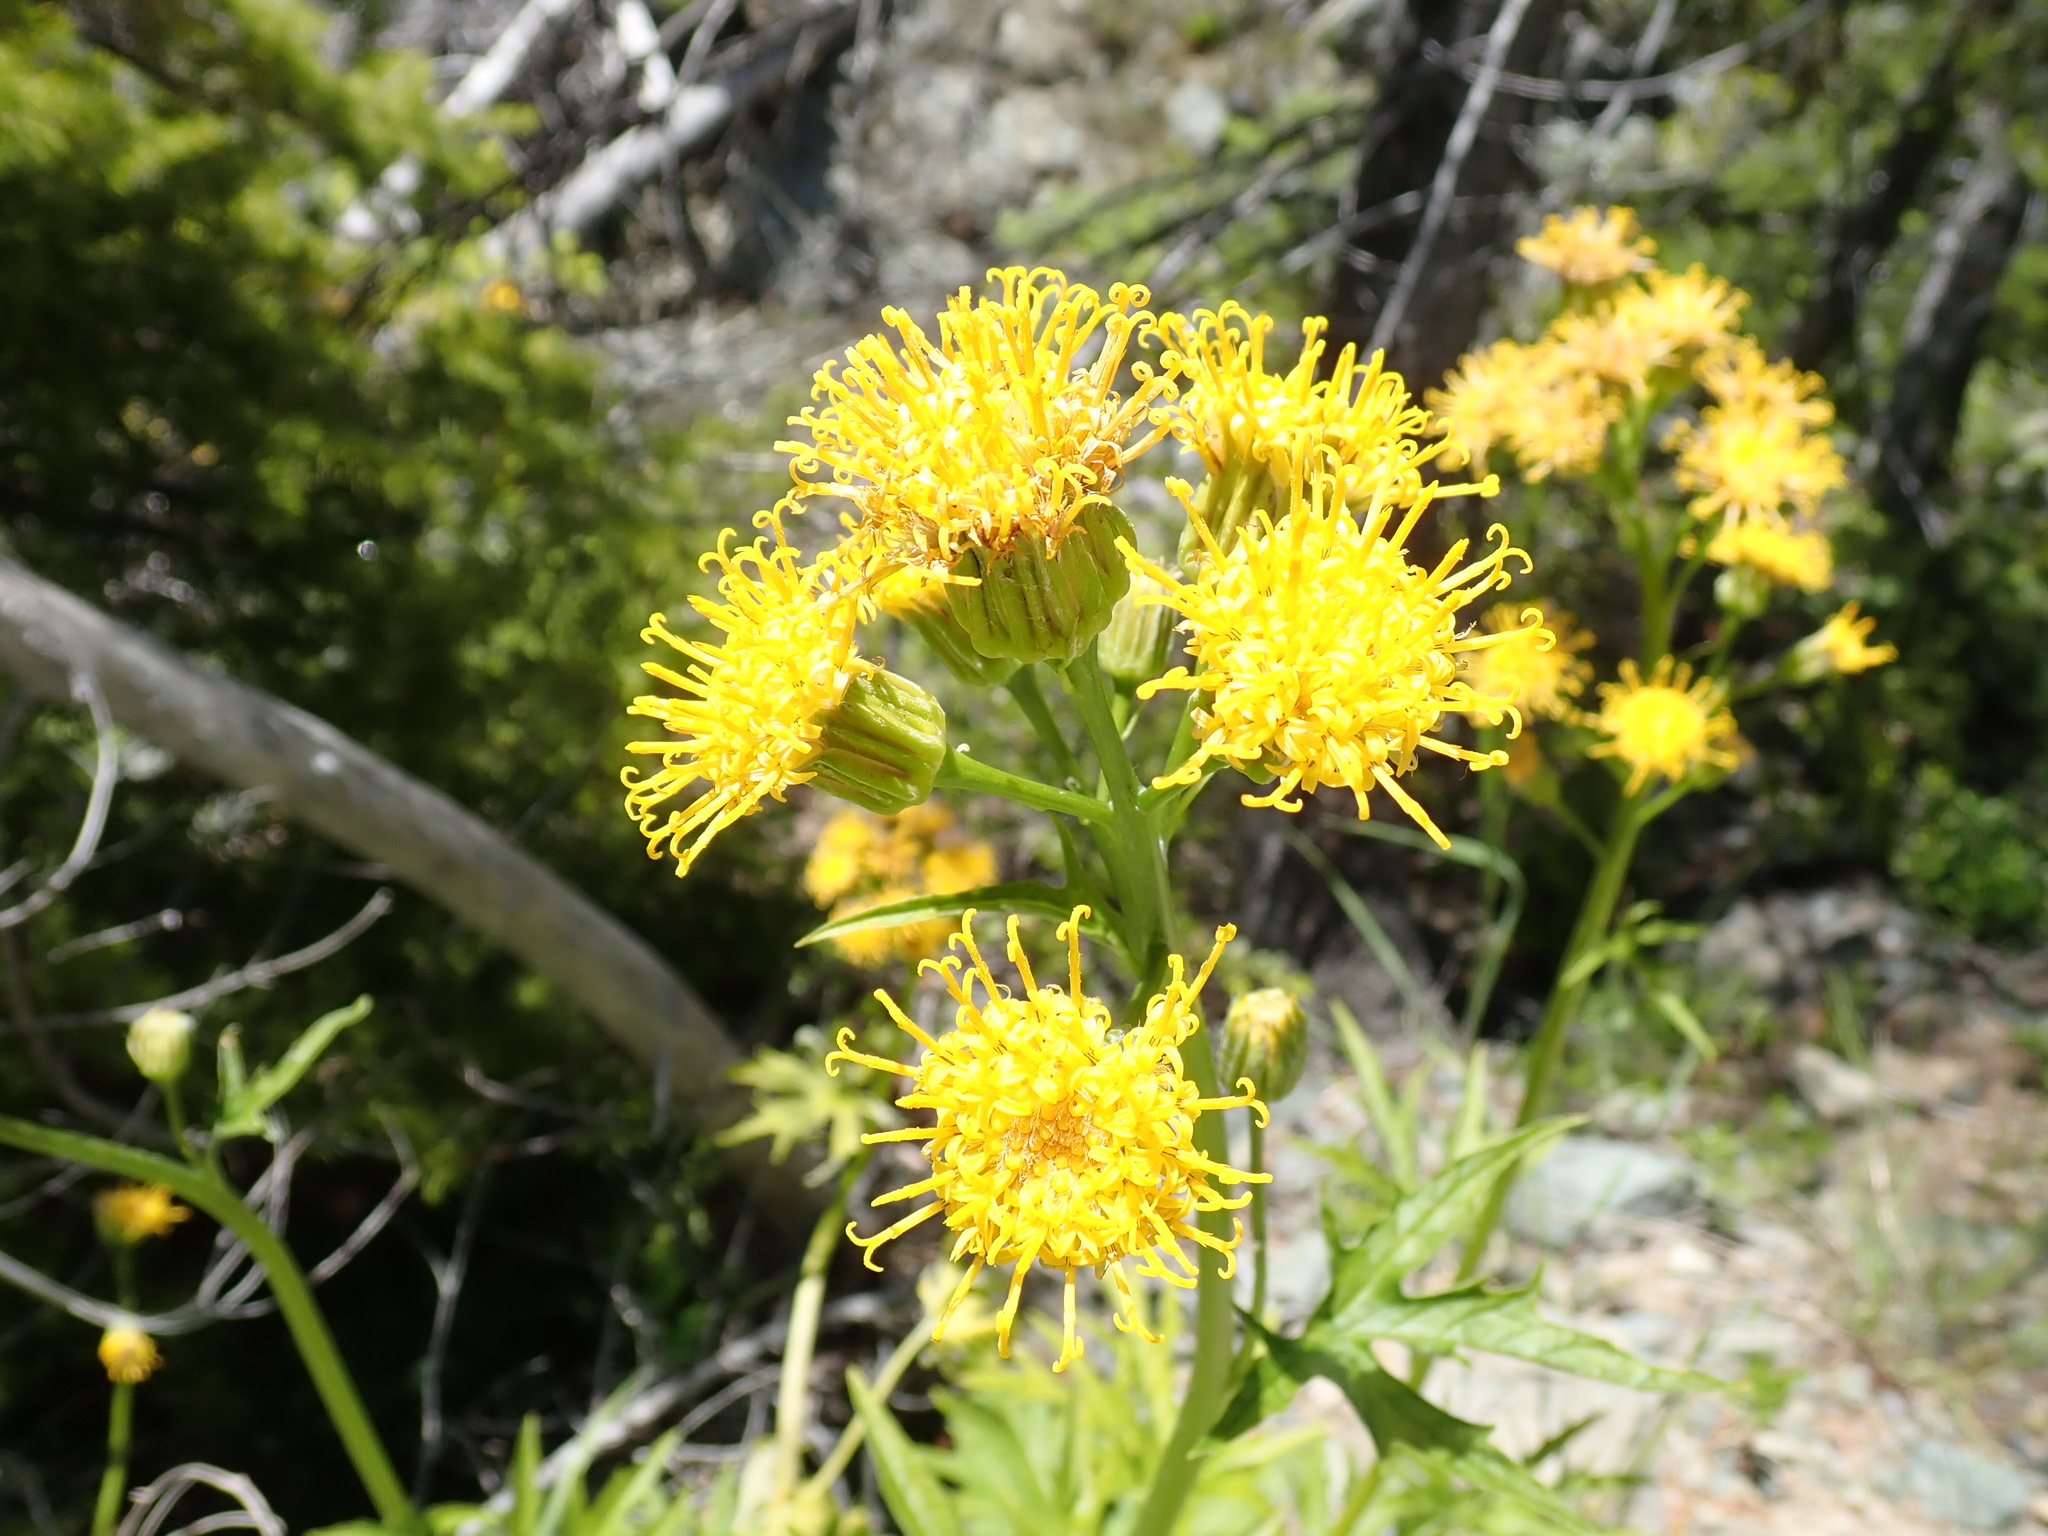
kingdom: Plantae
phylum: Tracheophyta
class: Magnoliopsida
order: Asterales
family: Asteraceae
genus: Cacaliopsis
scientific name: Cacaliopsis nardosmia
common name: Silvercrown
